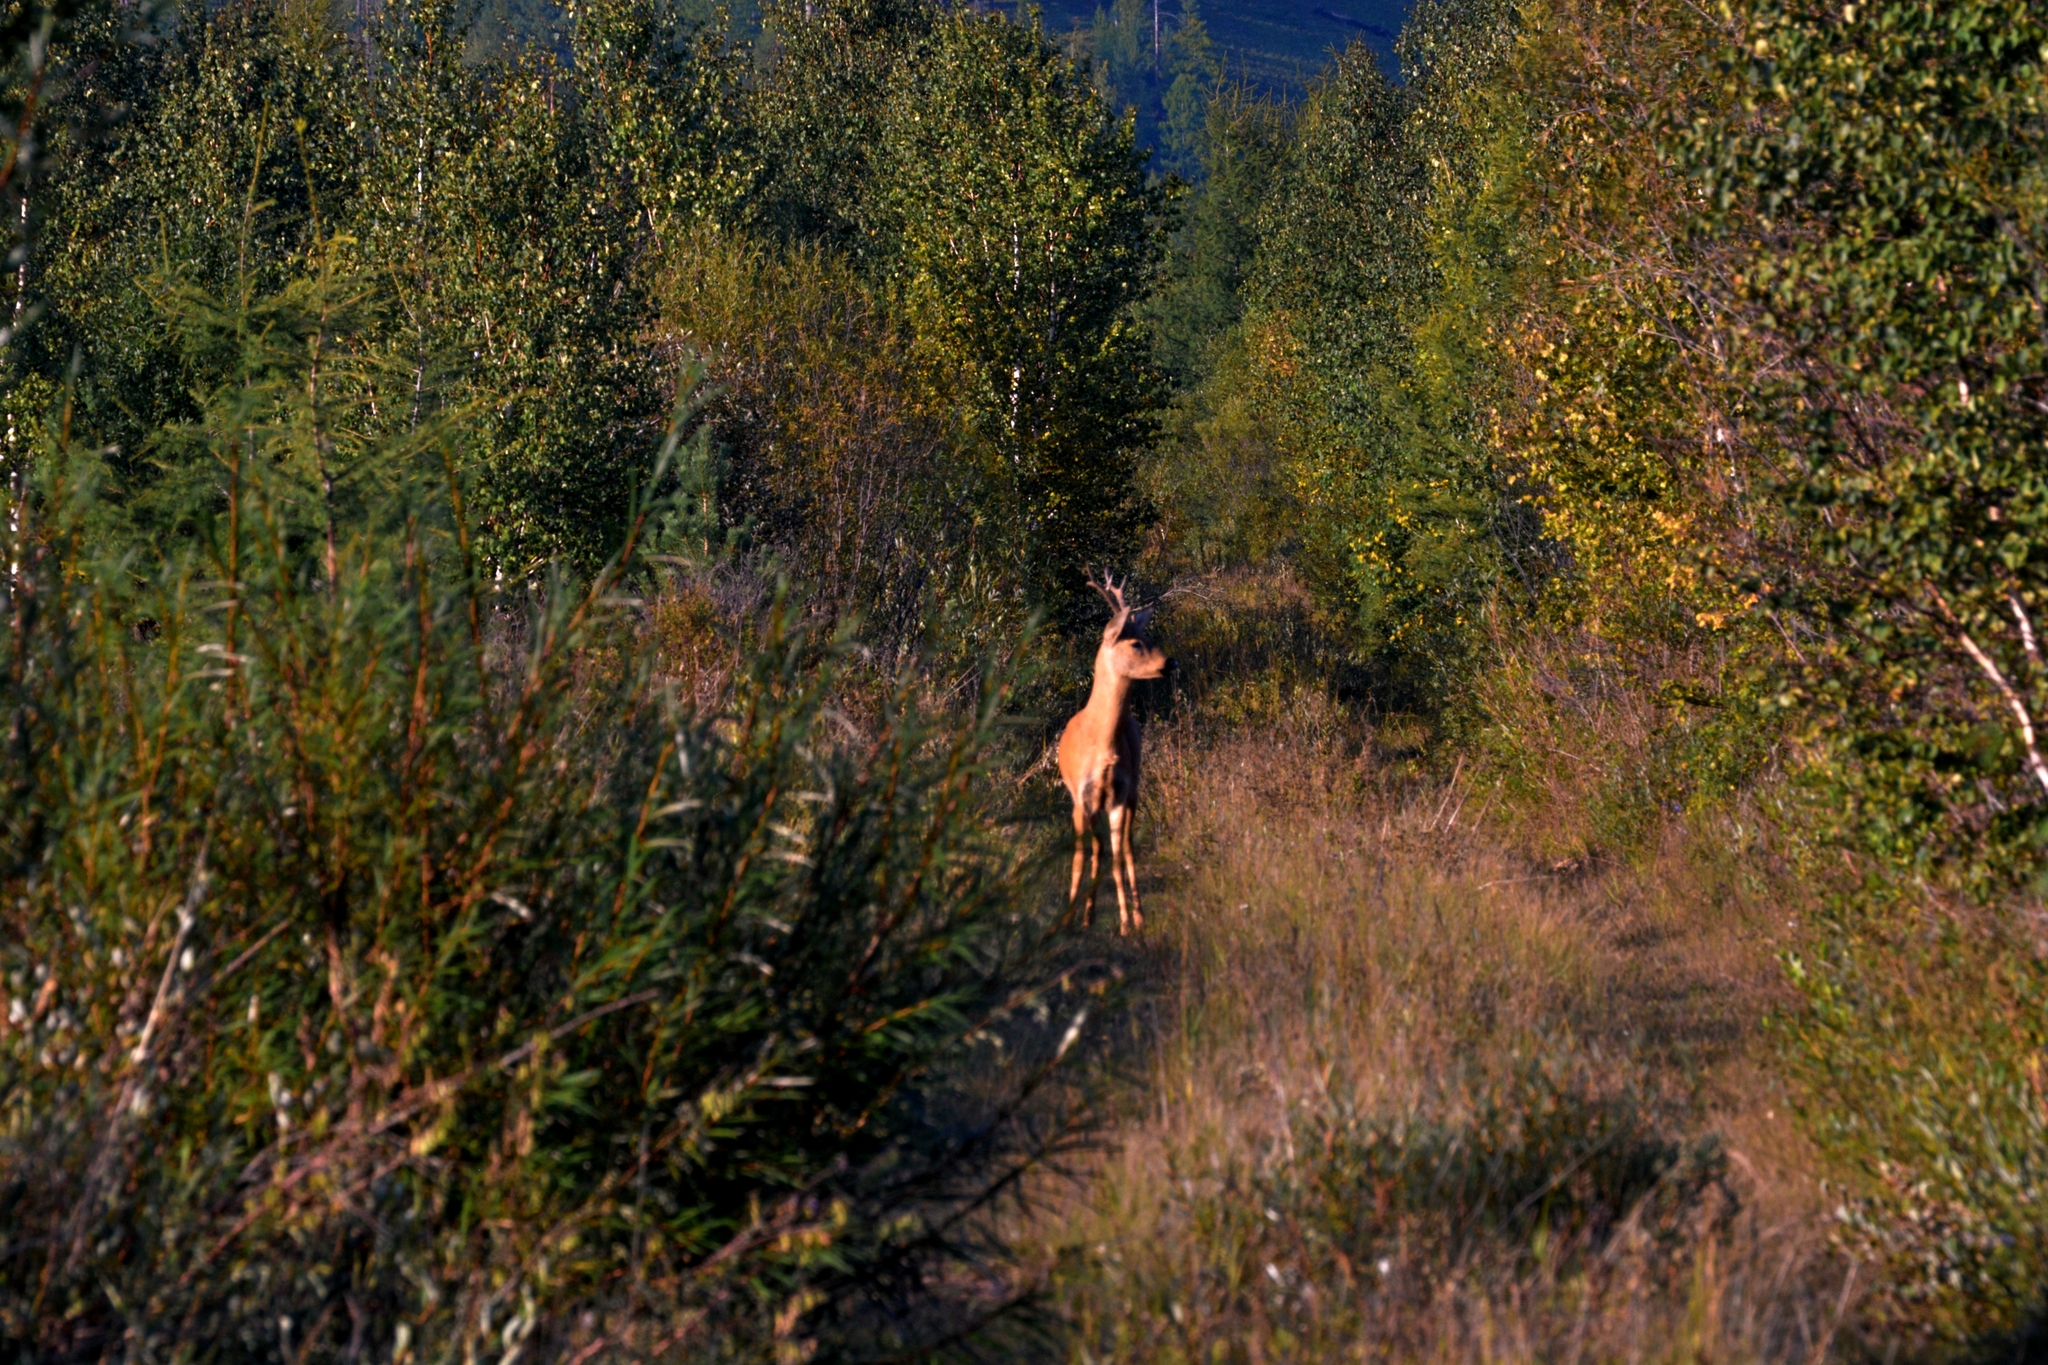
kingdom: Animalia
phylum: Chordata
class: Mammalia
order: Artiodactyla
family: Cervidae
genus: Capreolus
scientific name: Capreolus pygargus
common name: Siberian roe
